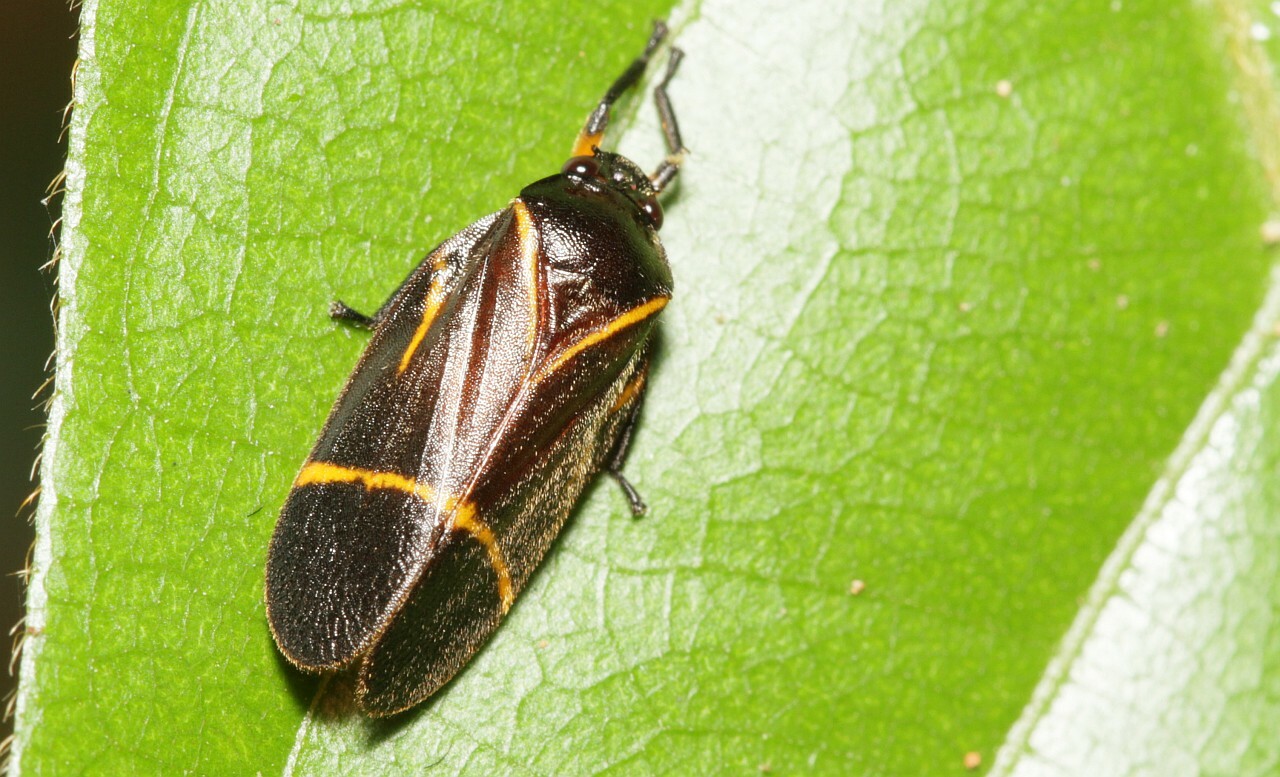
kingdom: Animalia
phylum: Arthropoda
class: Insecta
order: Hemiptera
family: Cercopidae
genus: Maxantonia
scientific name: Maxantonia lineola
